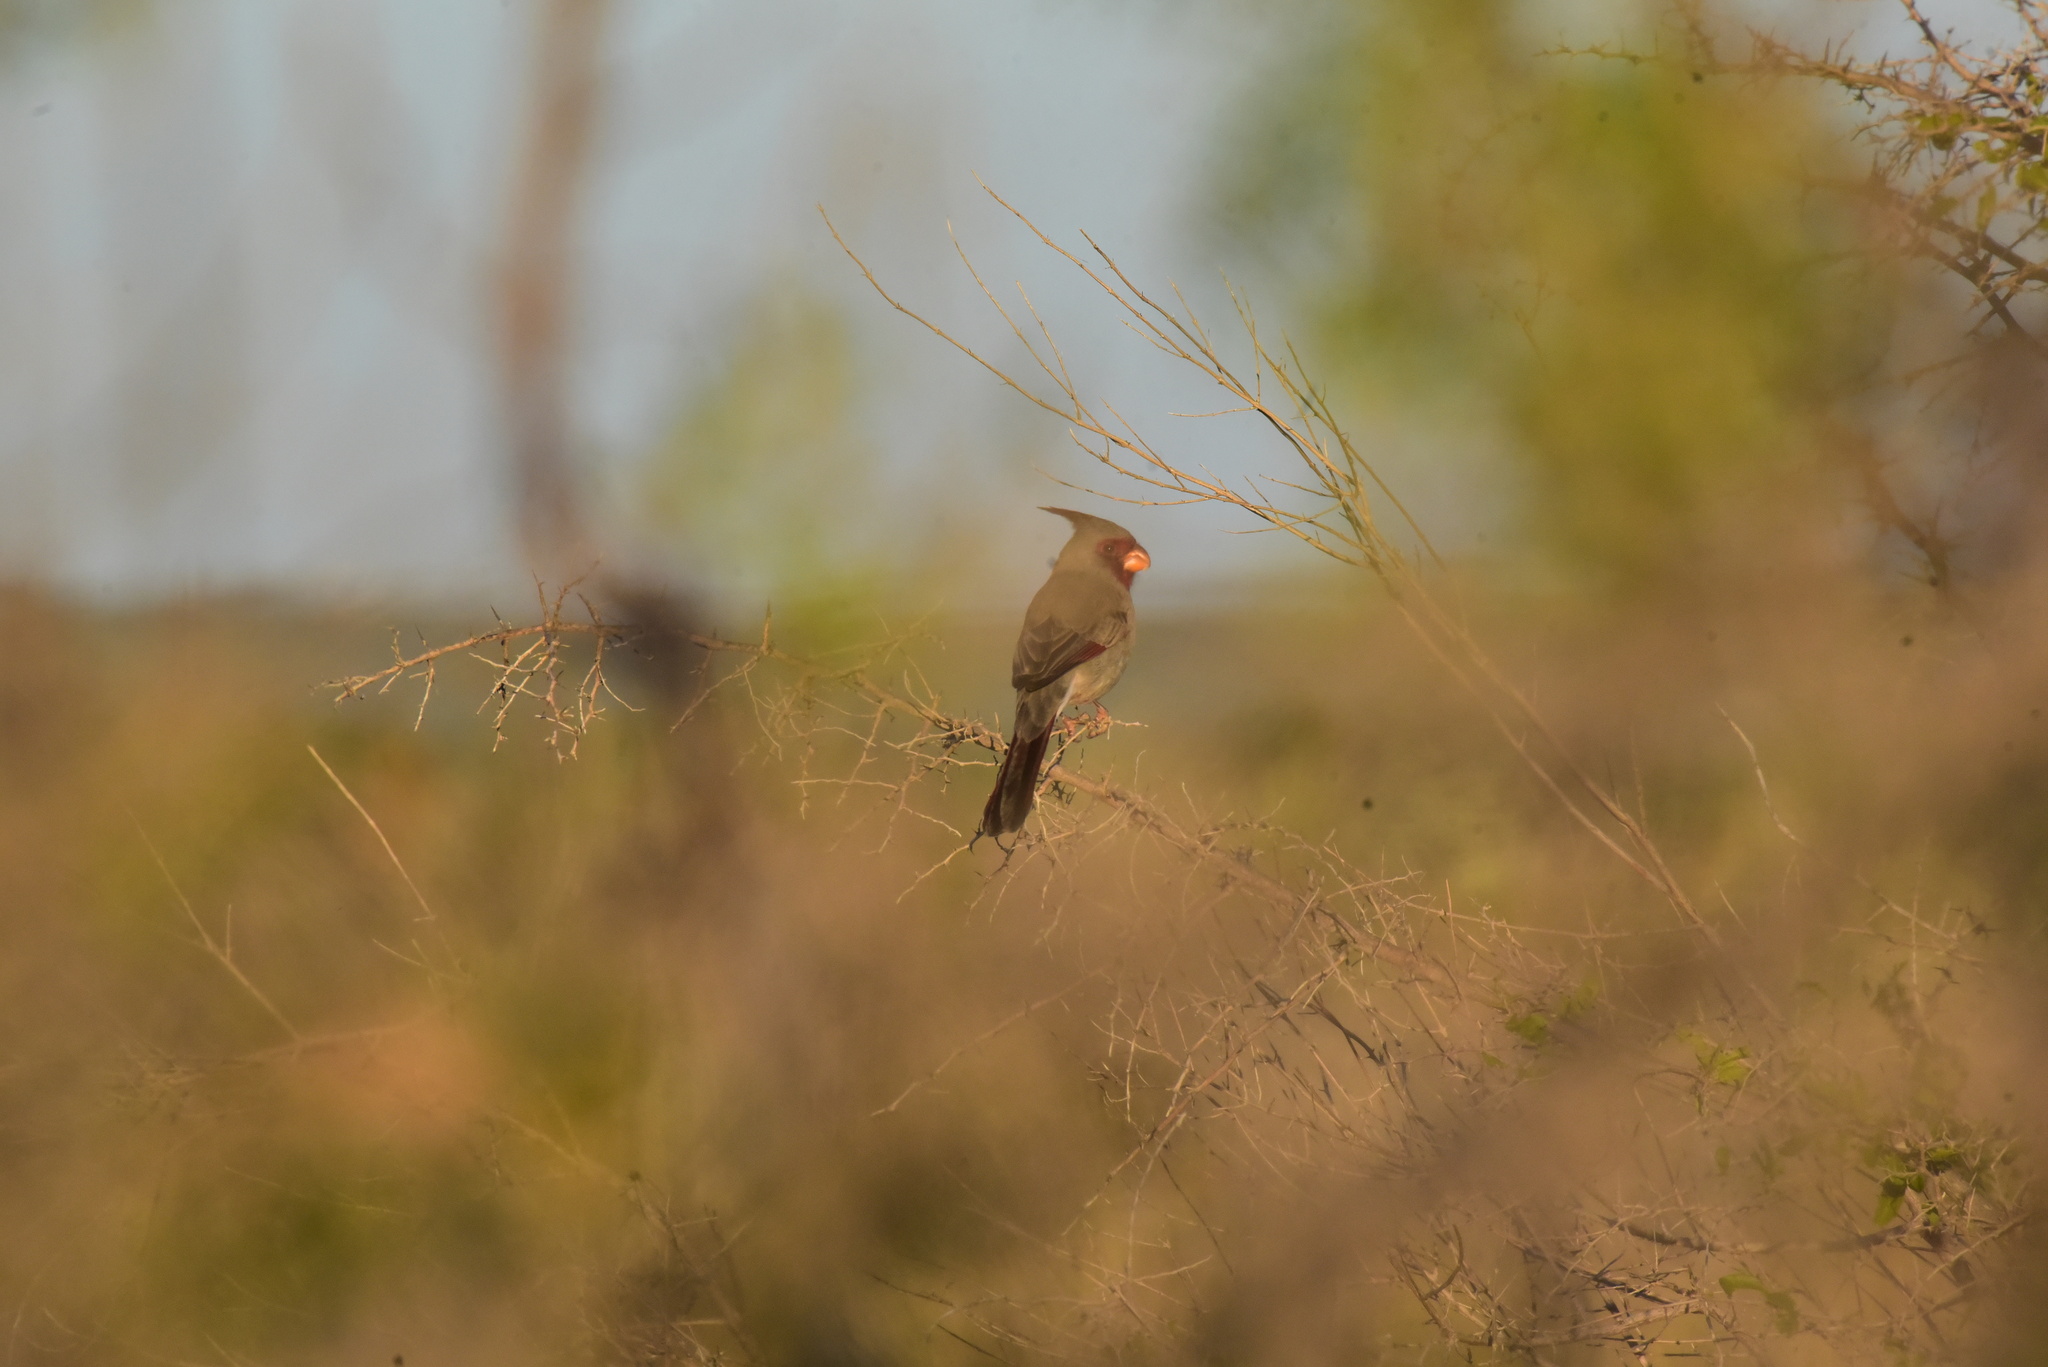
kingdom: Animalia
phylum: Chordata
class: Aves
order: Passeriformes
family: Cardinalidae
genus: Cardinalis
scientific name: Cardinalis sinuatus
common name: Pyrrhuloxia
